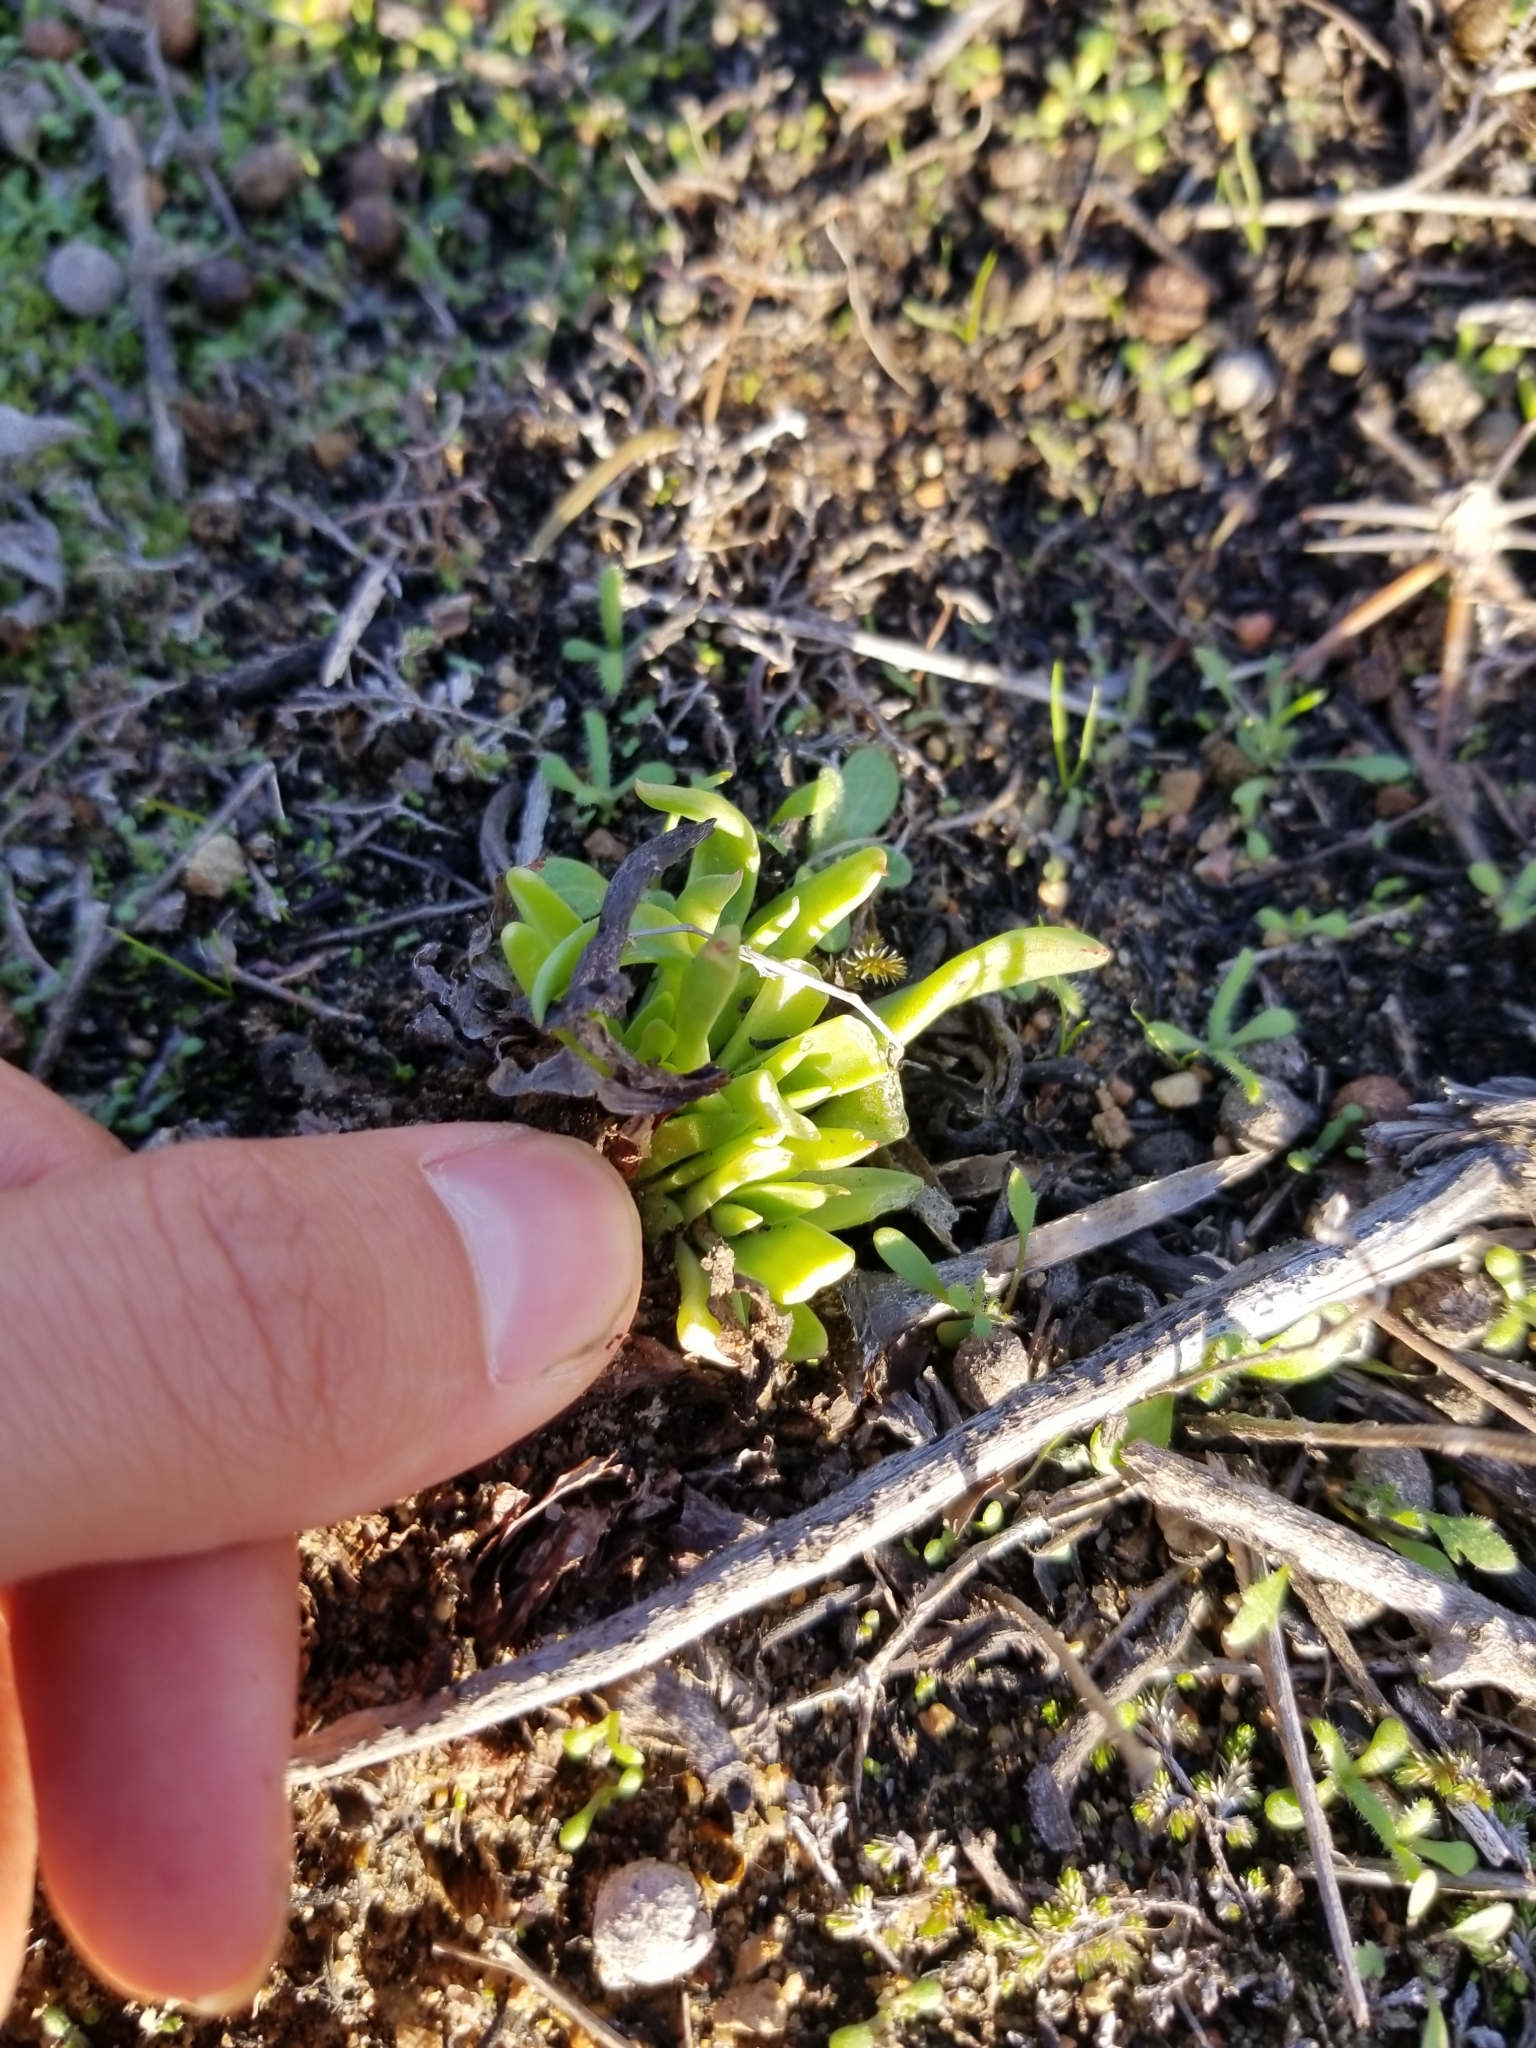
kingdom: Plantae
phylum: Tracheophyta
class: Magnoliopsida
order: Saxifragales
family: Crassulaceae
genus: Dudleya
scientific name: Dudleya lanceolata
